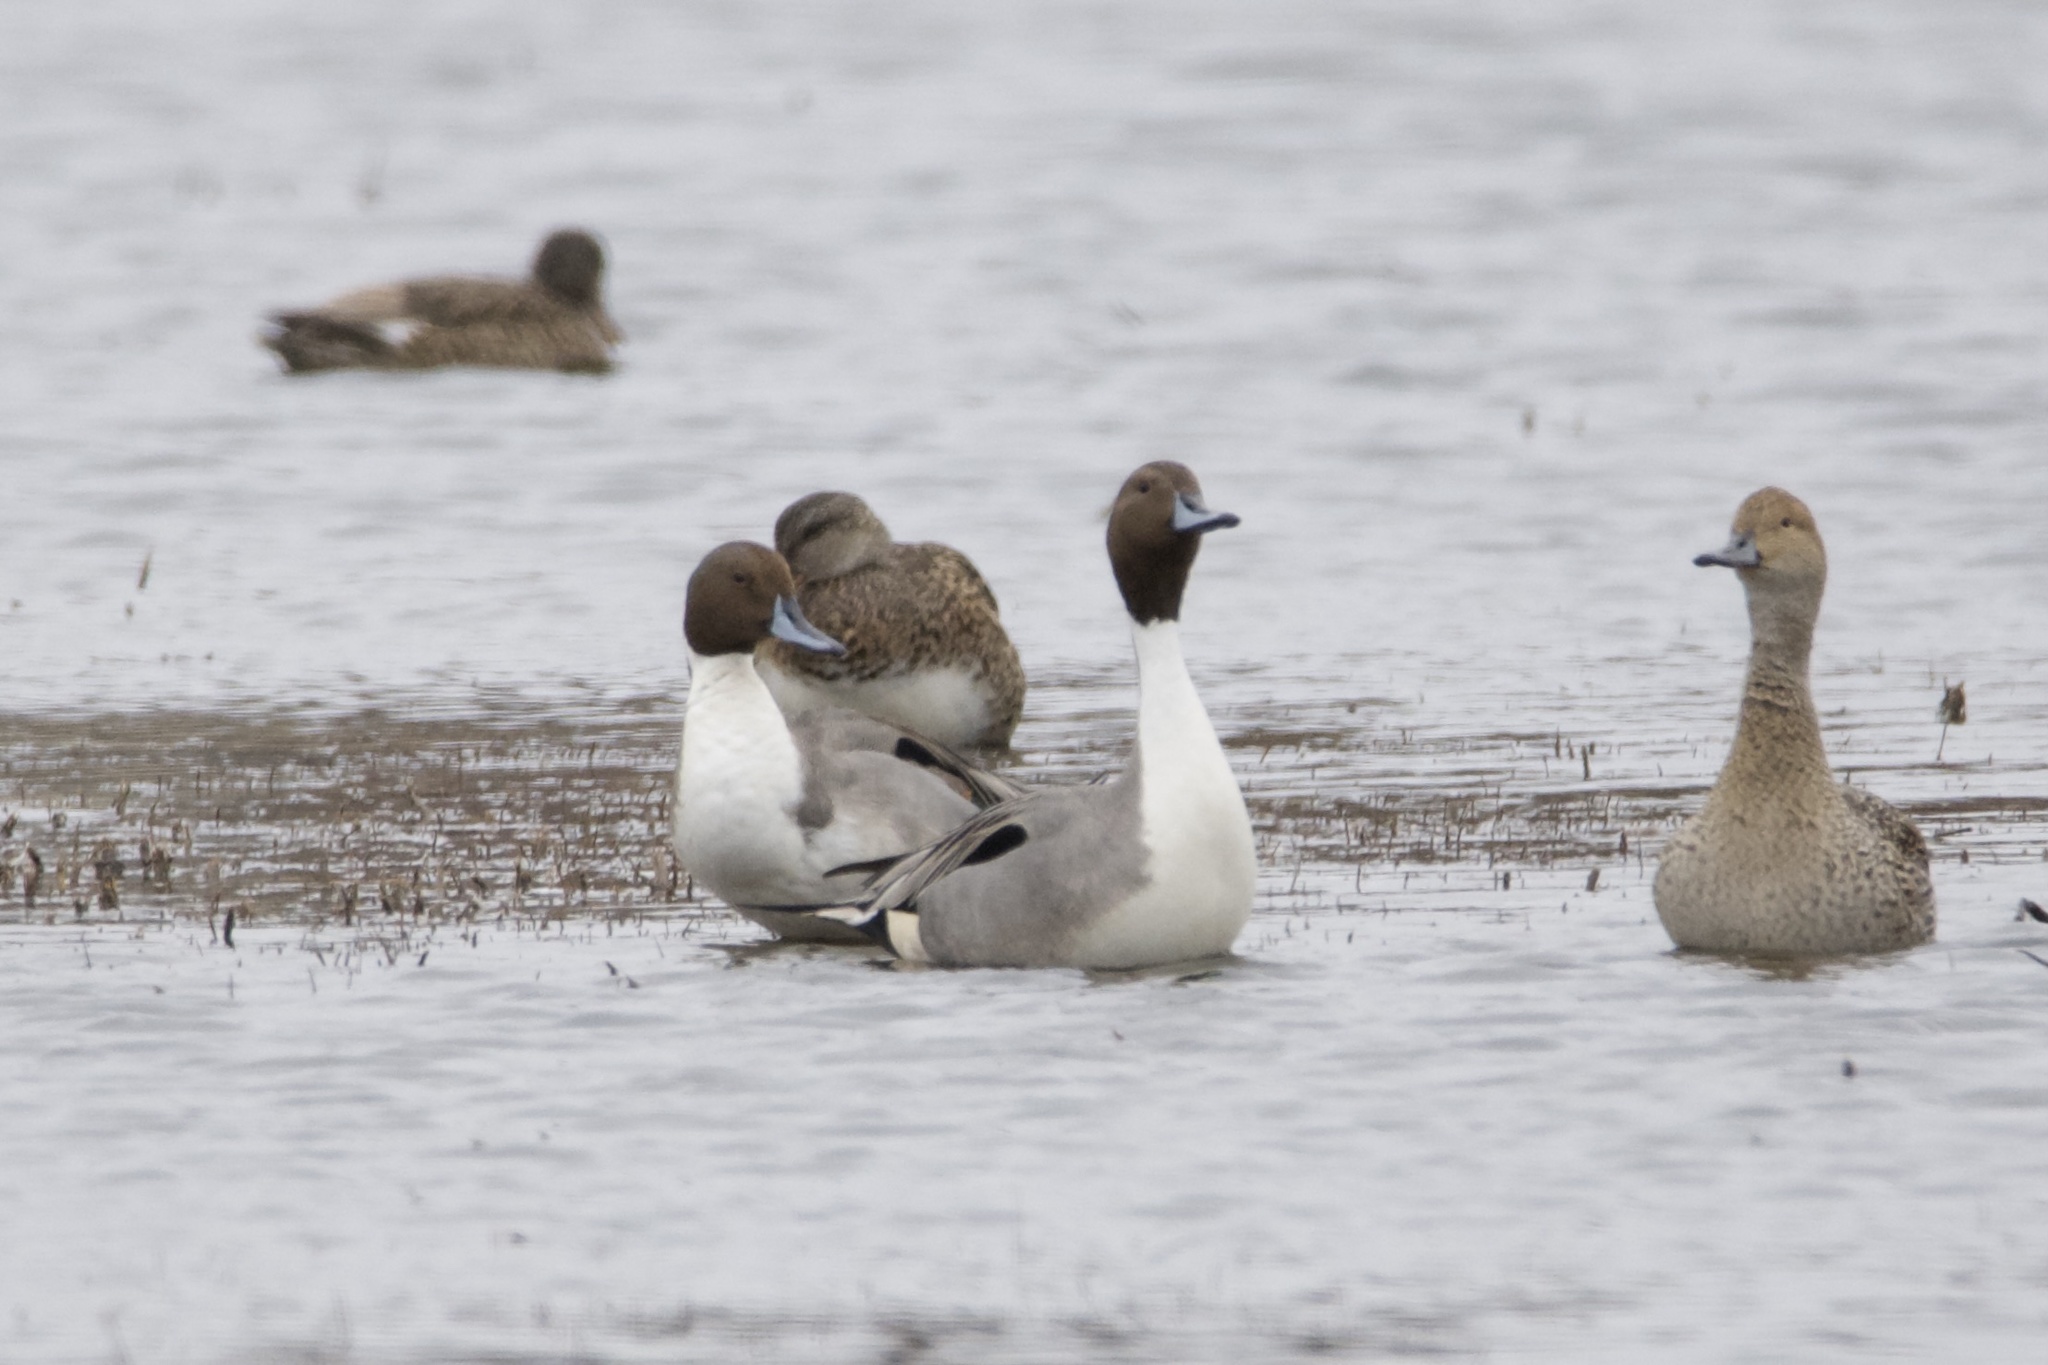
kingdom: Animalia
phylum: Chordata
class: Aves
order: Anseriformes
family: Anatidae
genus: Anas
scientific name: Anas acuta
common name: Northern pintail
